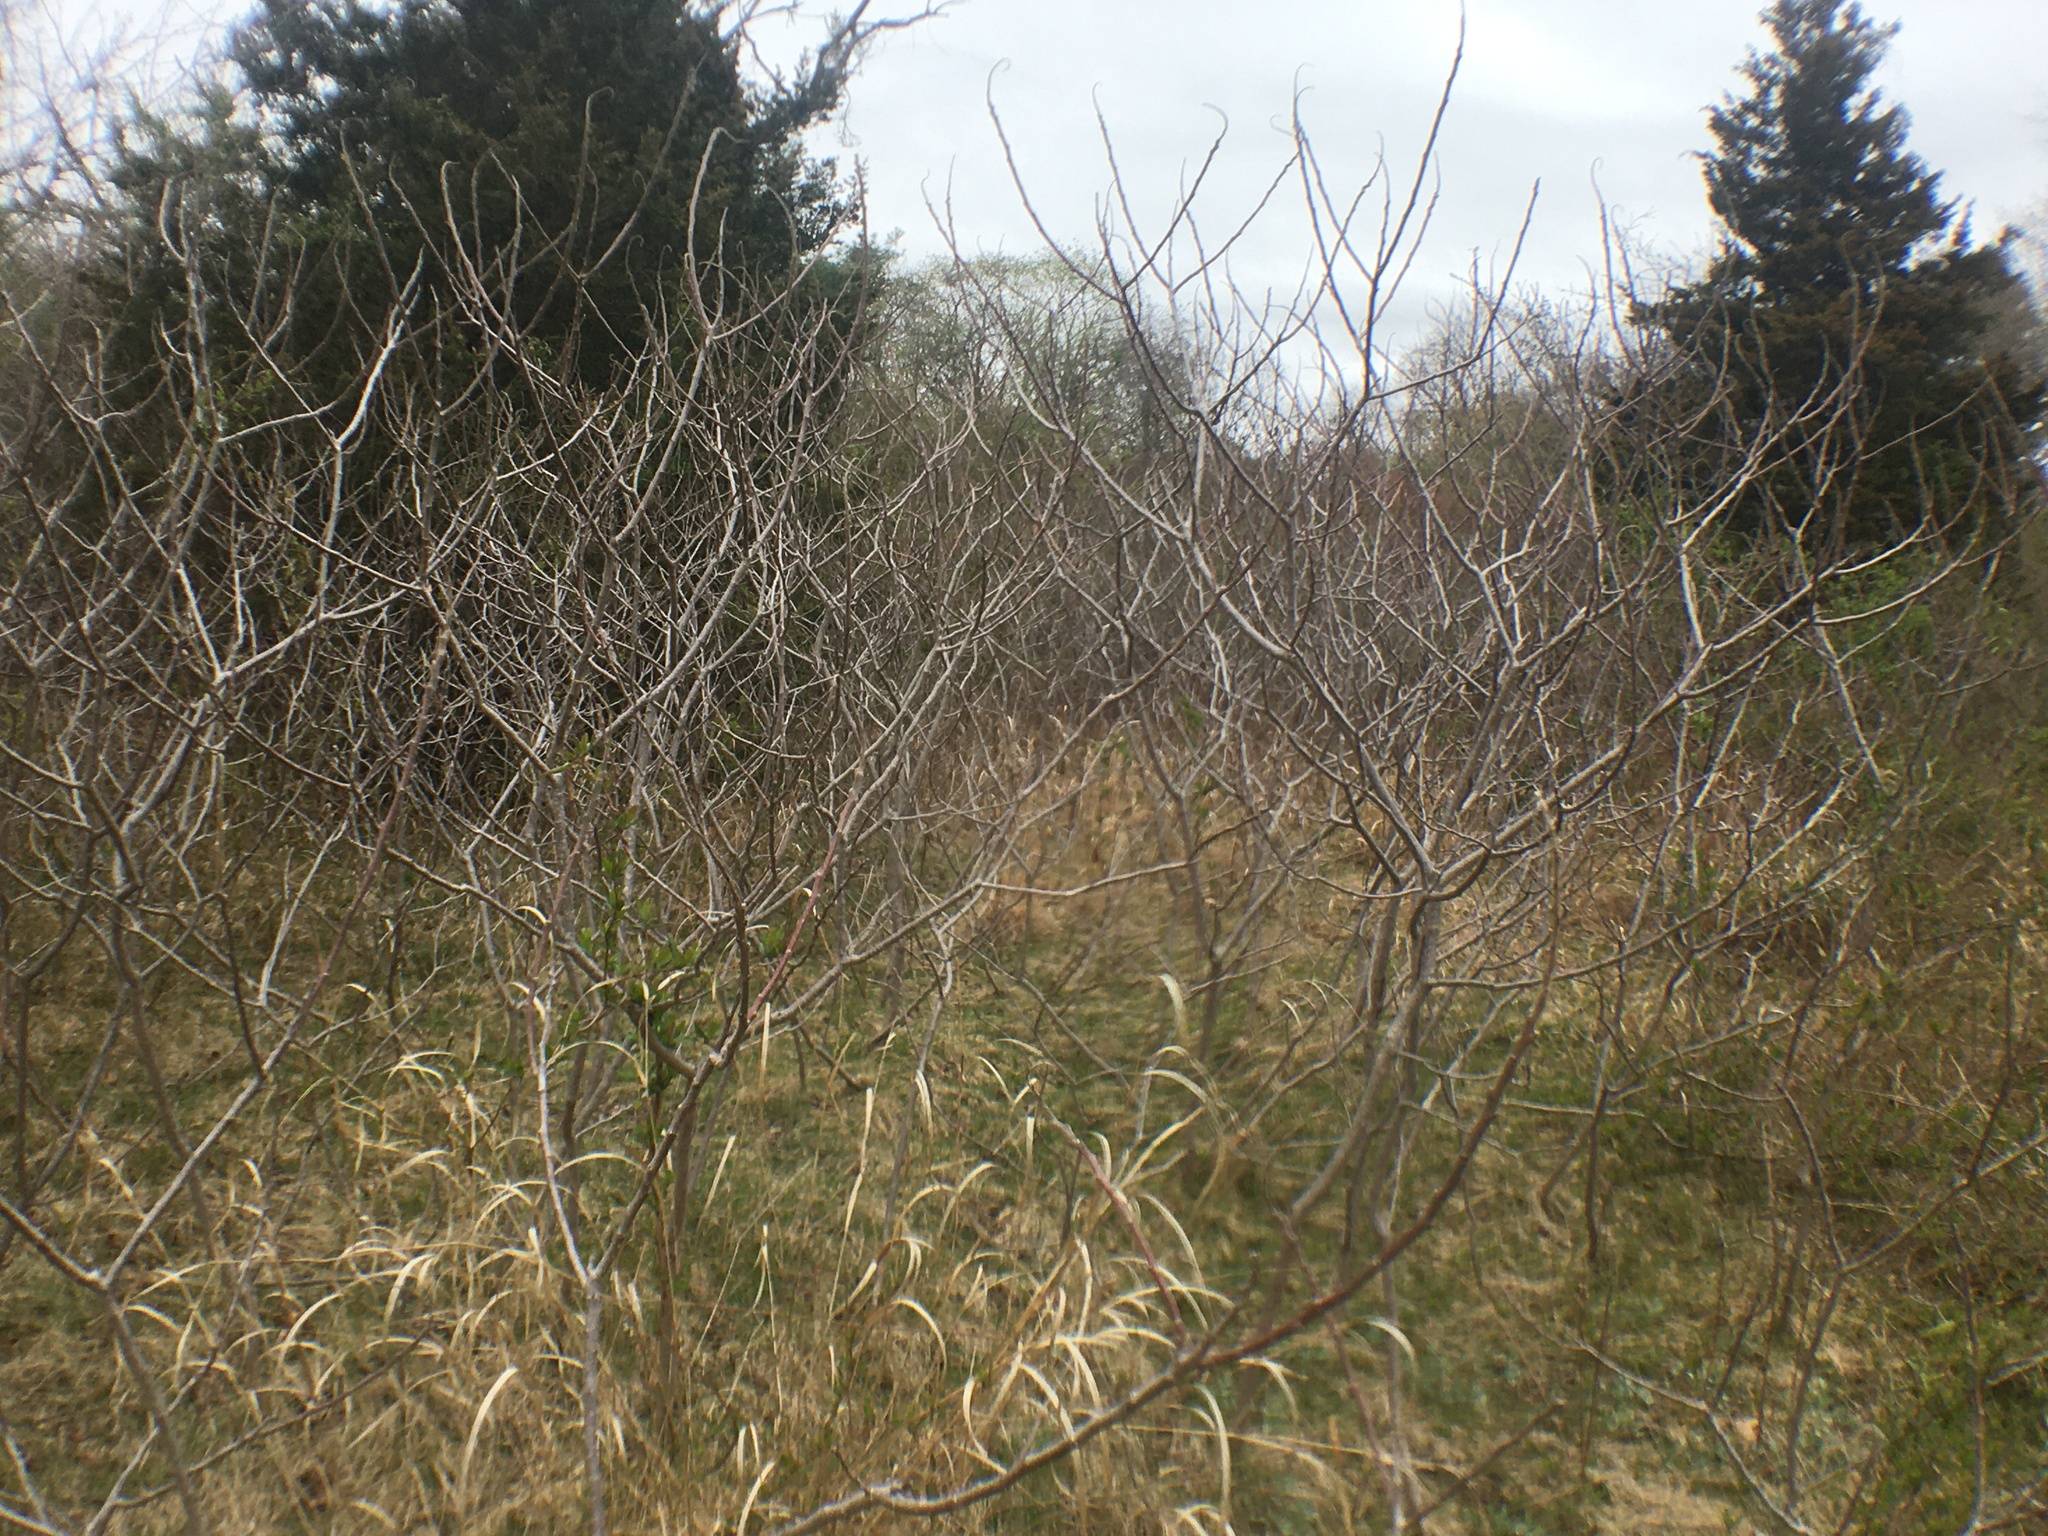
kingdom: Plantae
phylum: Tracheophyta
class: Magnoliopsida
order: Sapindales
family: Anacardiaceae
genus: Rhus
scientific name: Rhus copallina
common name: Shining sumac
